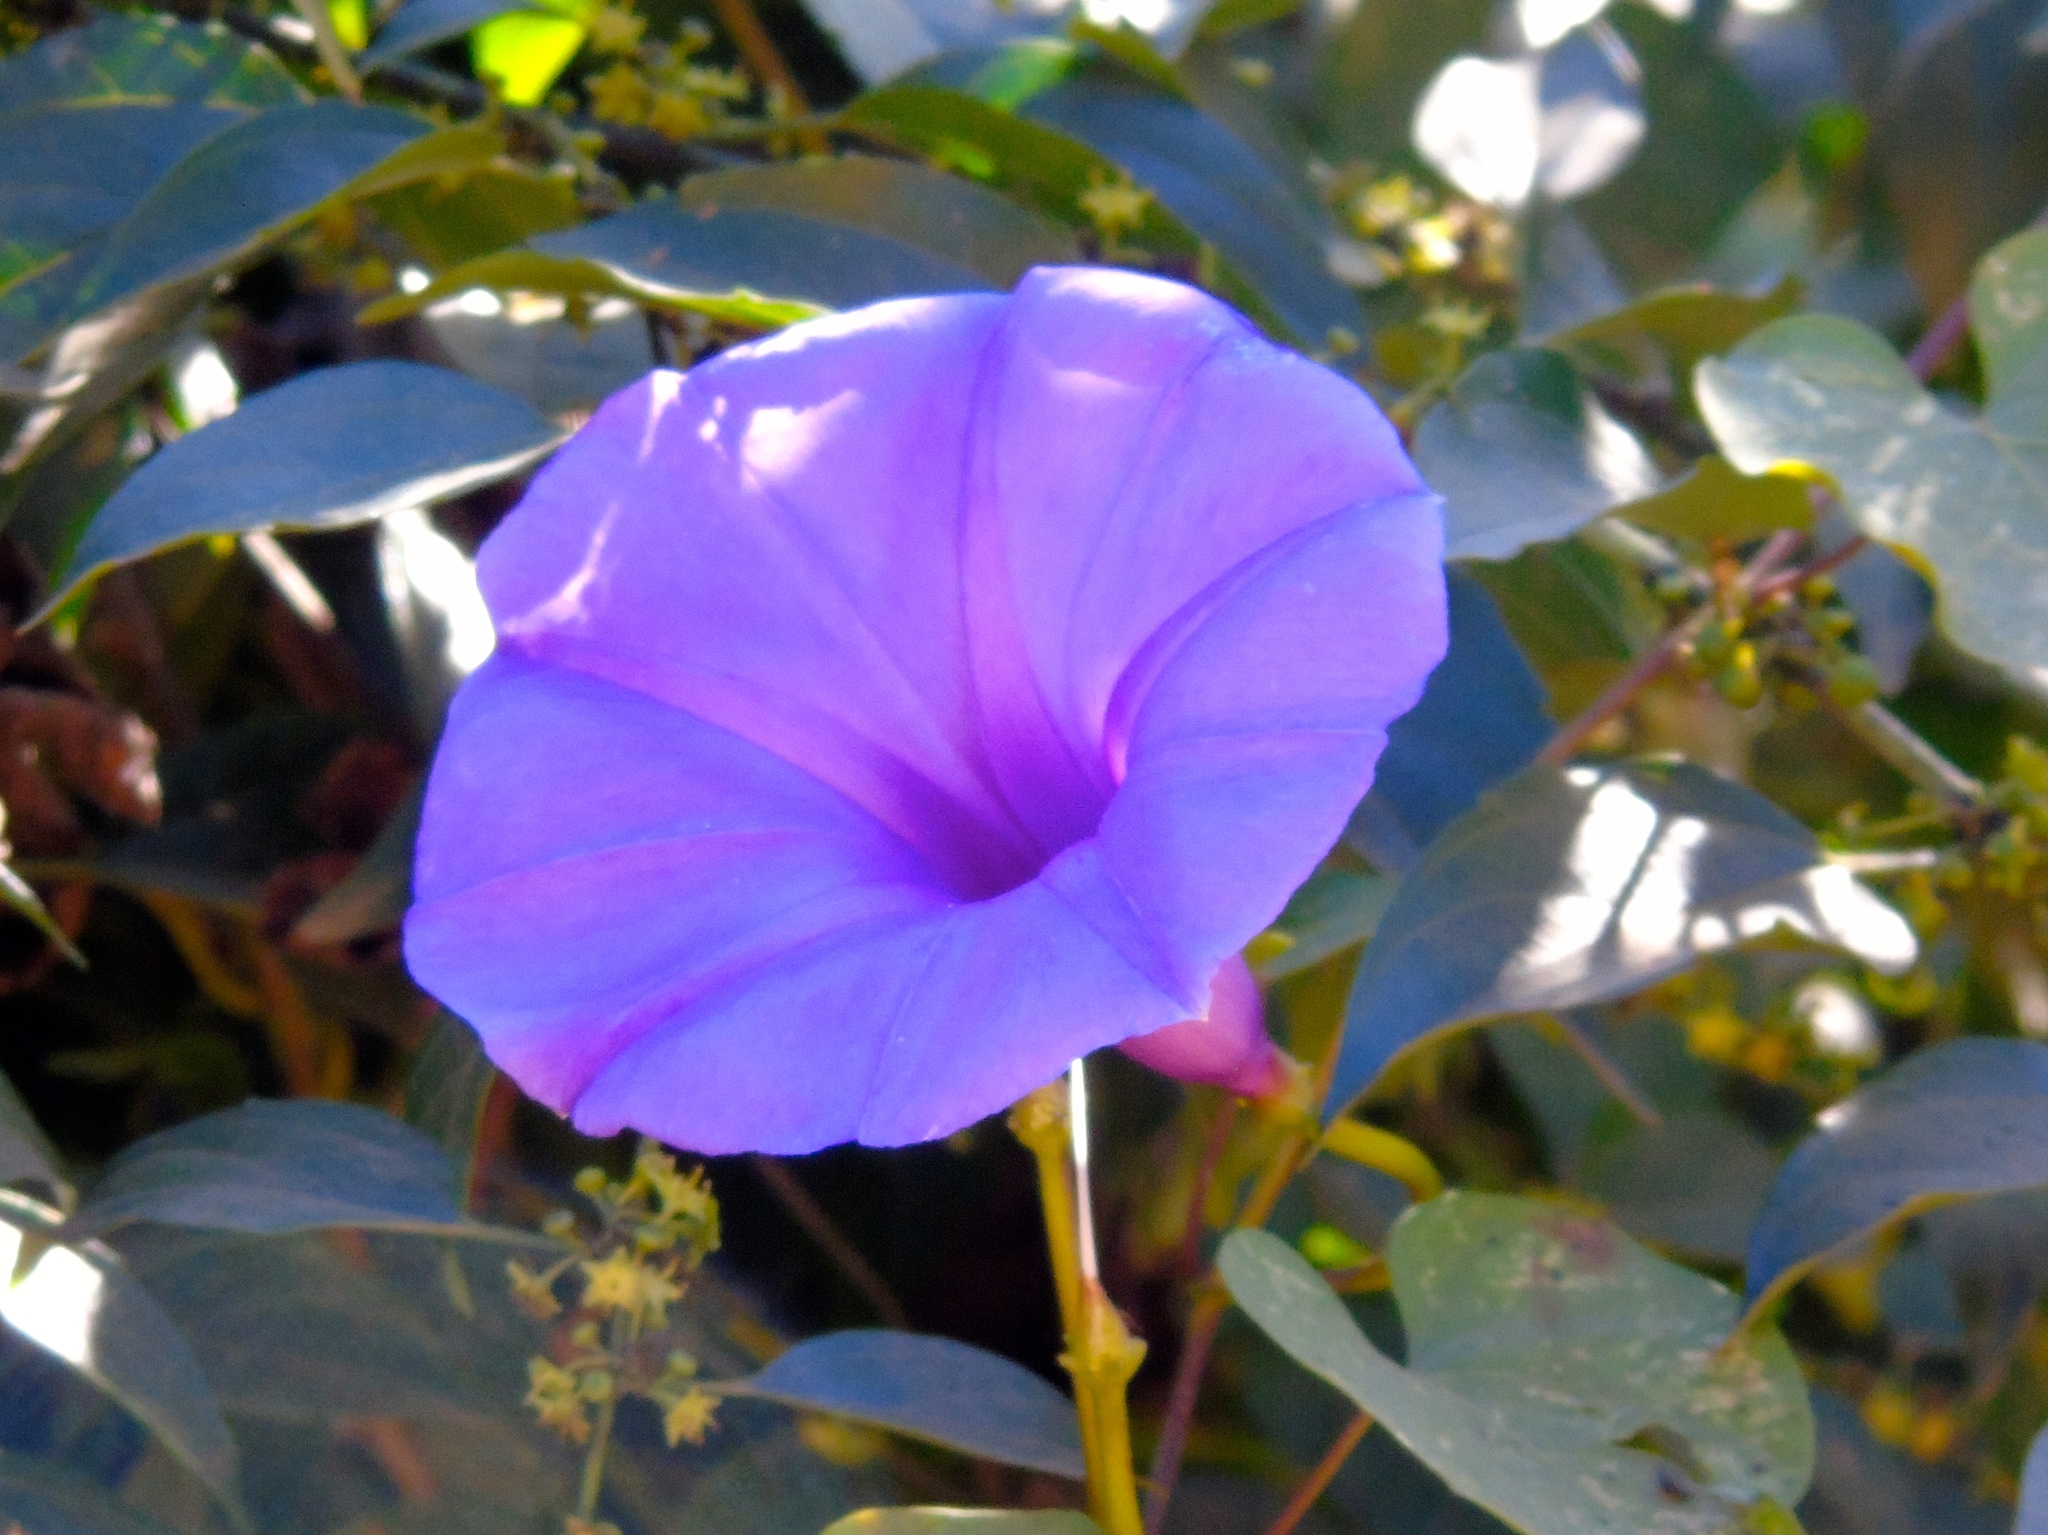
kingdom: Plantae
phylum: Tracheophyta
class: Magnoliopsida
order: Solanales
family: Convolvulaceae
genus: Ipomoea
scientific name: Ipomoea pedicellaris
